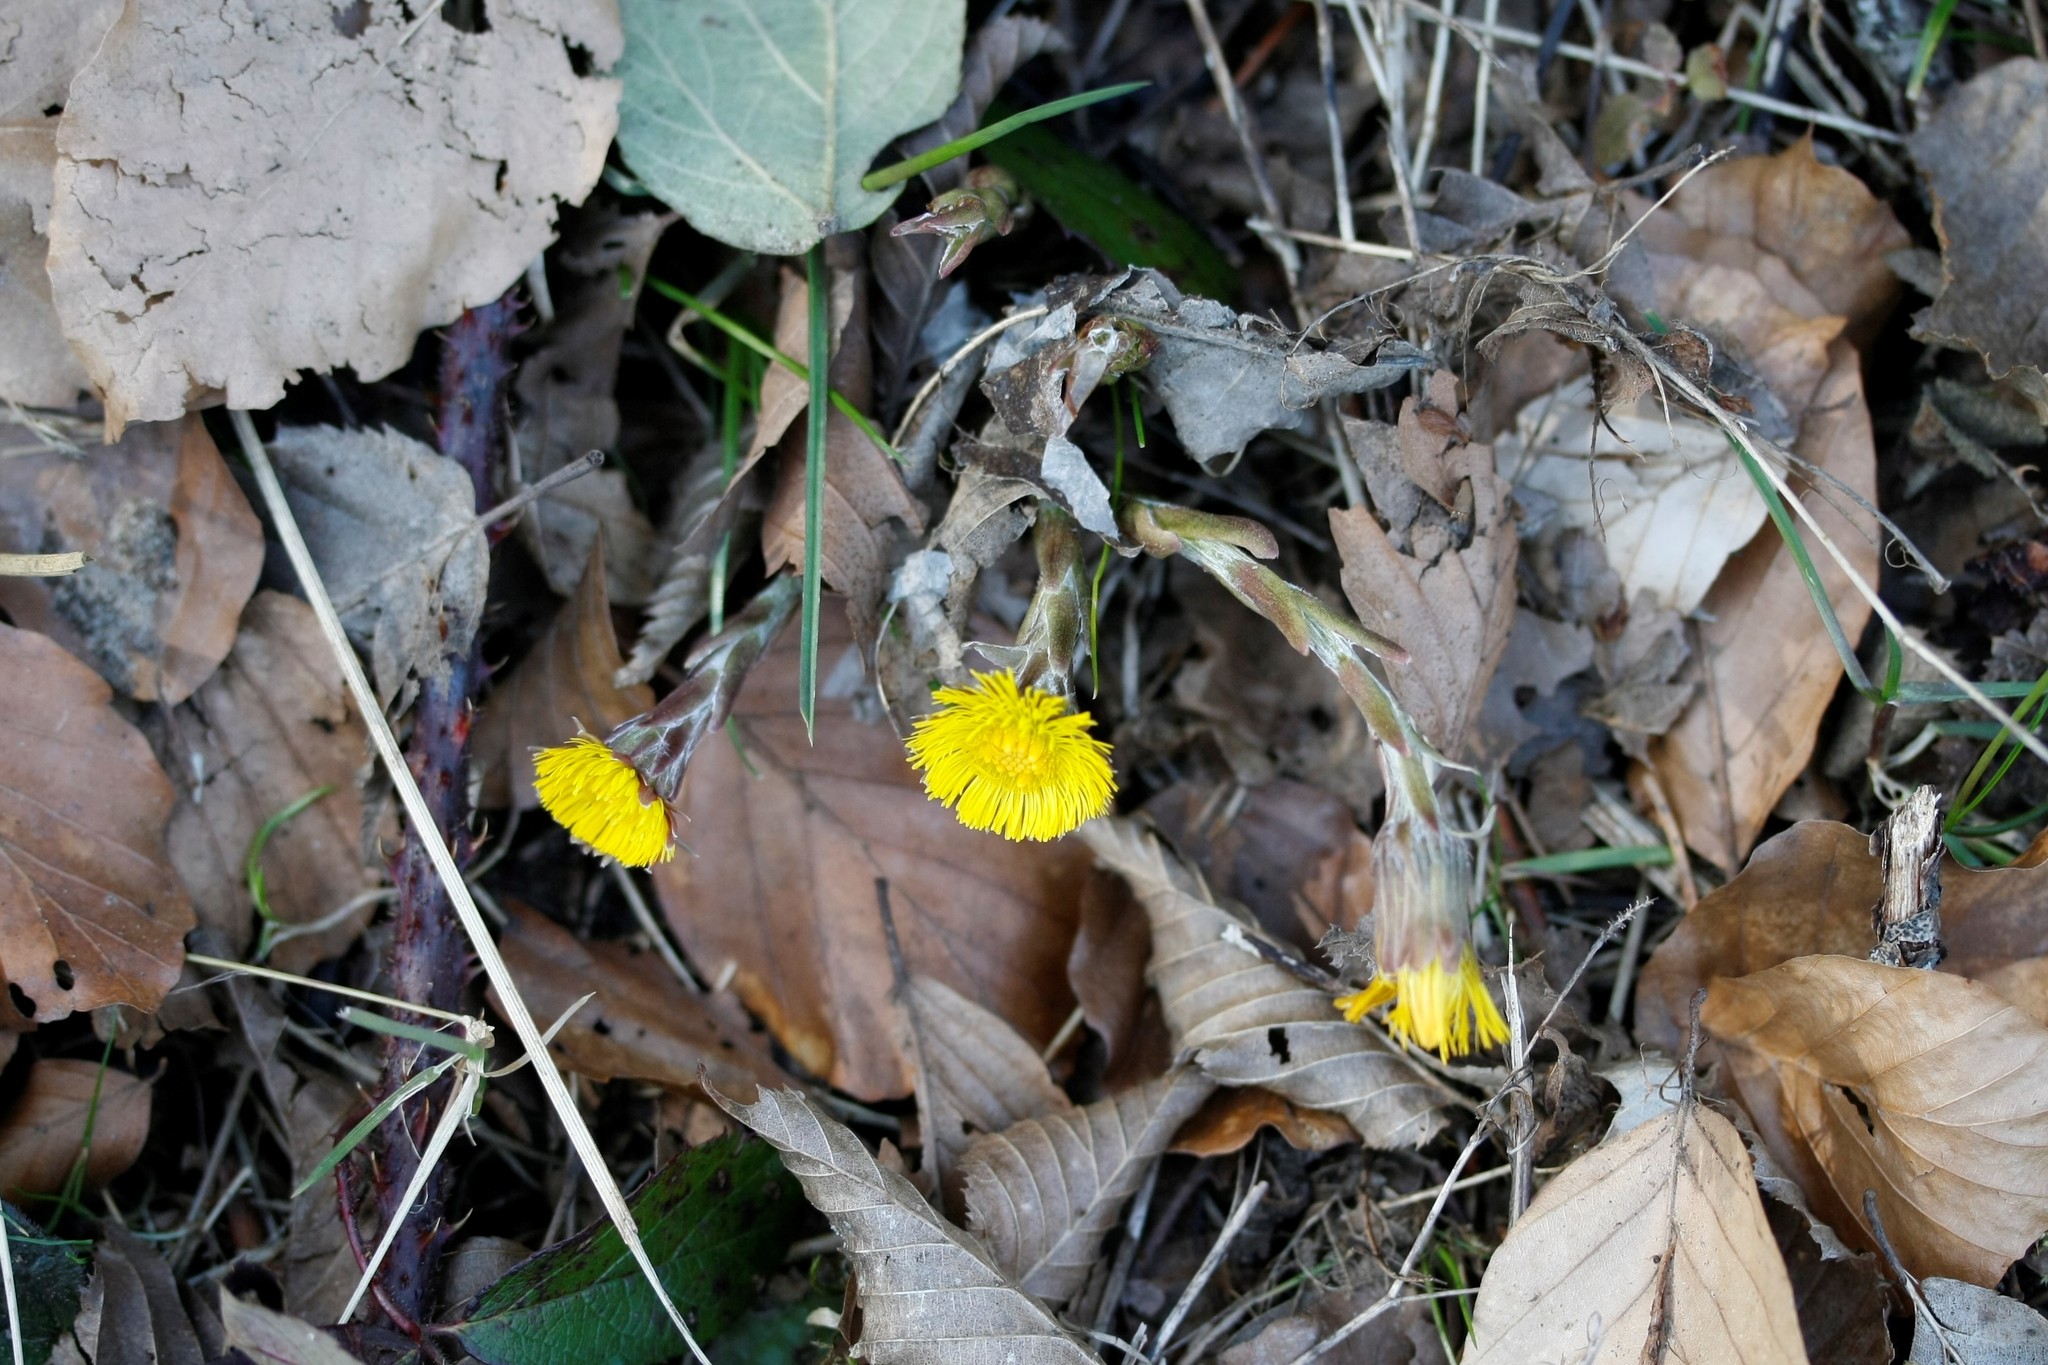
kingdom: Plantae
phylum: Tracheophyta
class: Magnoliopsida
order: Asterales
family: Asteraceae
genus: Tussilago
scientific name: Tussilago farfara
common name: Coltsfoot
